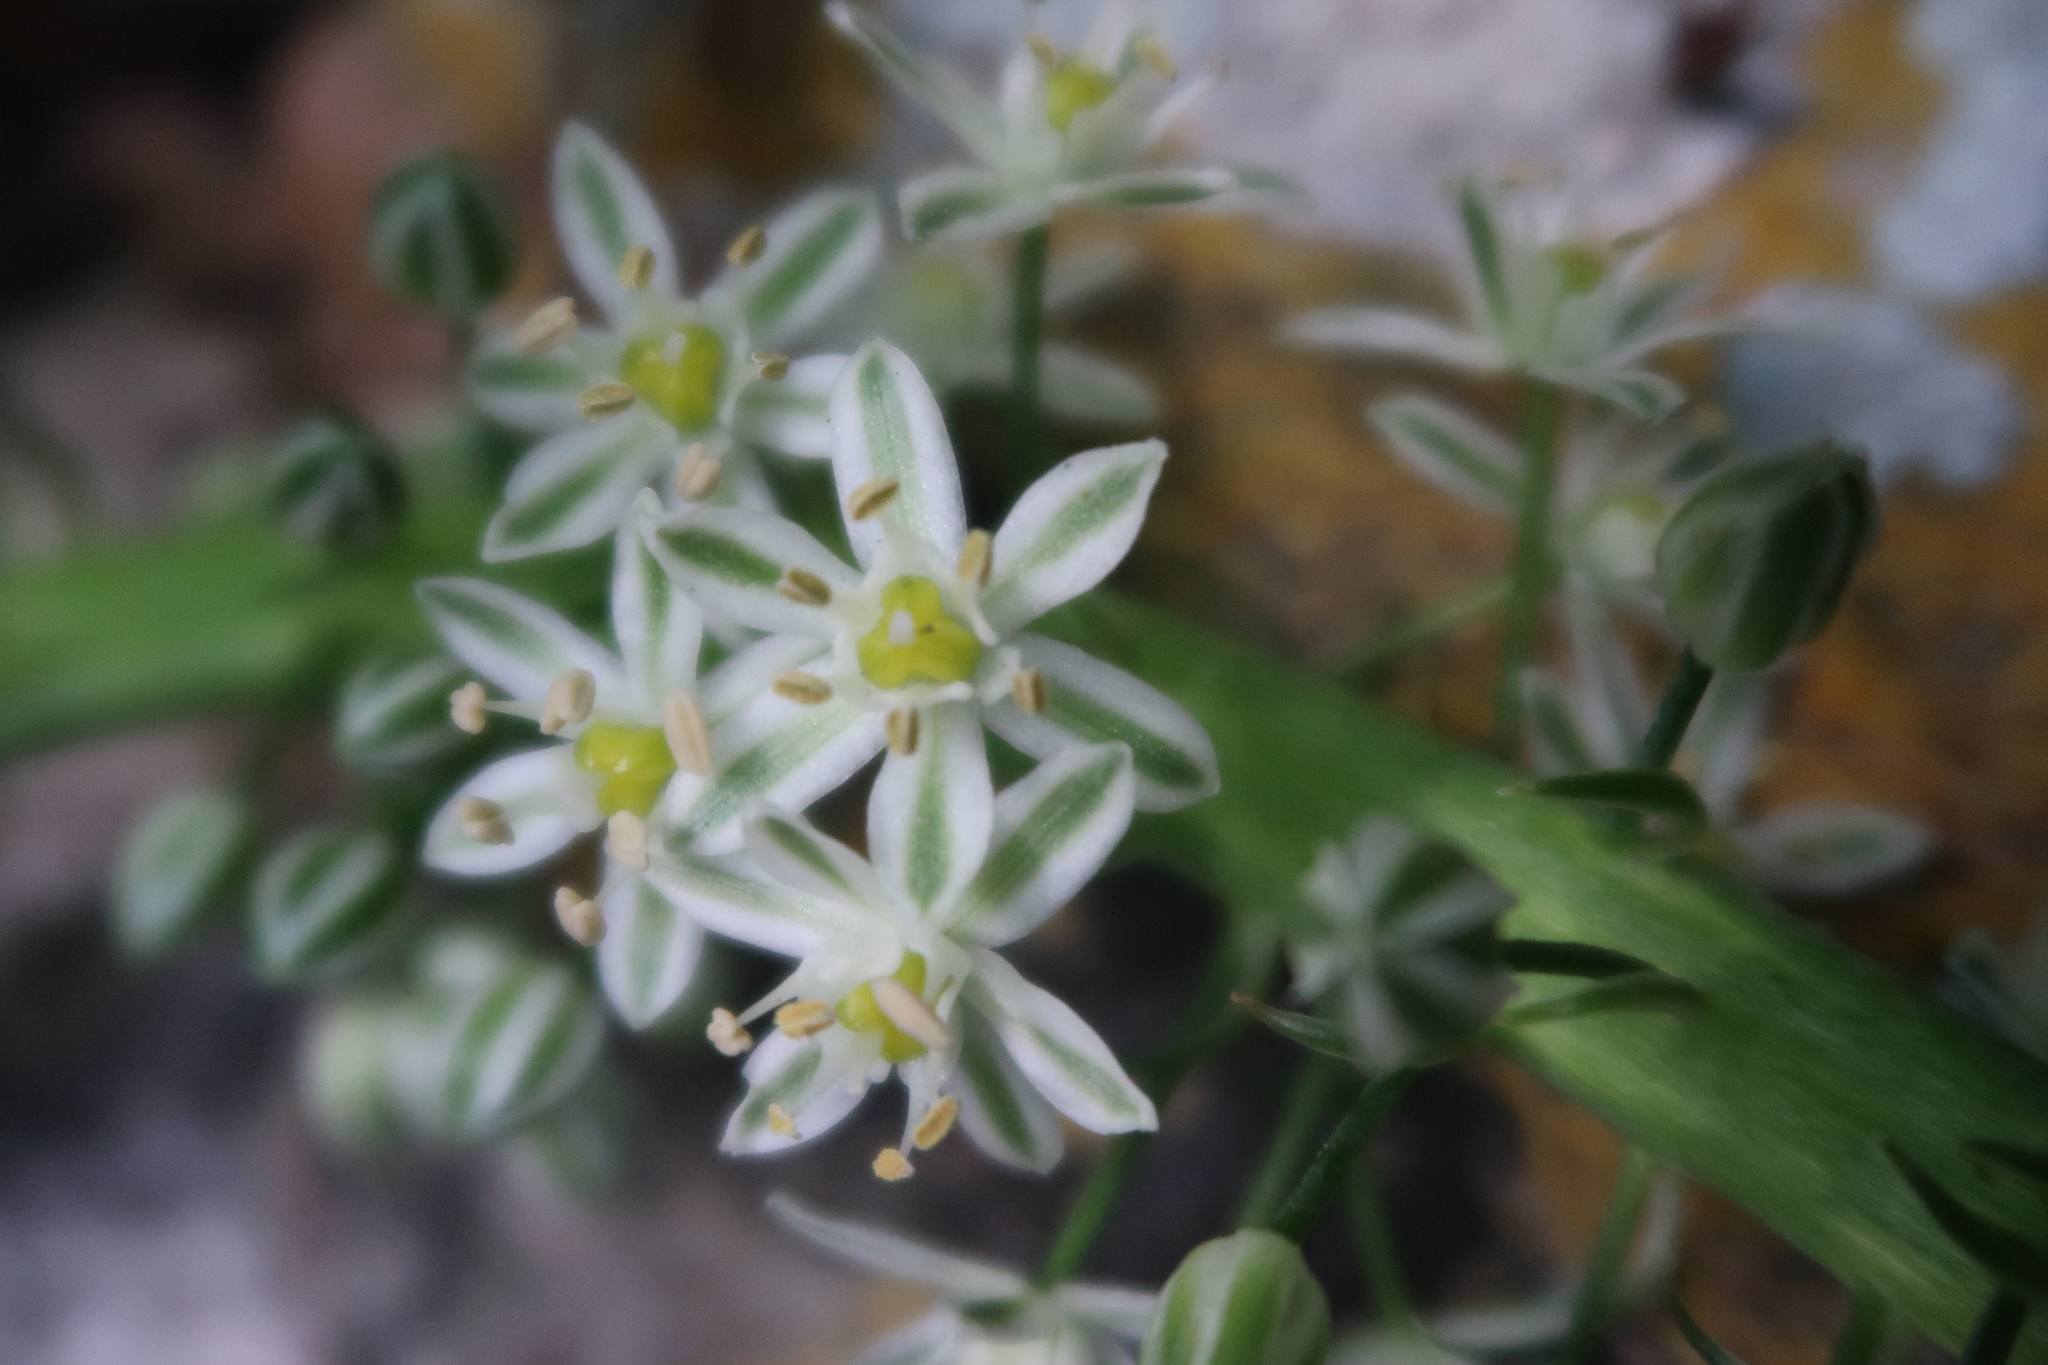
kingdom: Plantae
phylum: Tracheophyta
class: Liliopsida
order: Asparagales
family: Asparagaceae
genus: Albuca
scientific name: Albuca bracteata
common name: Sea-onion
